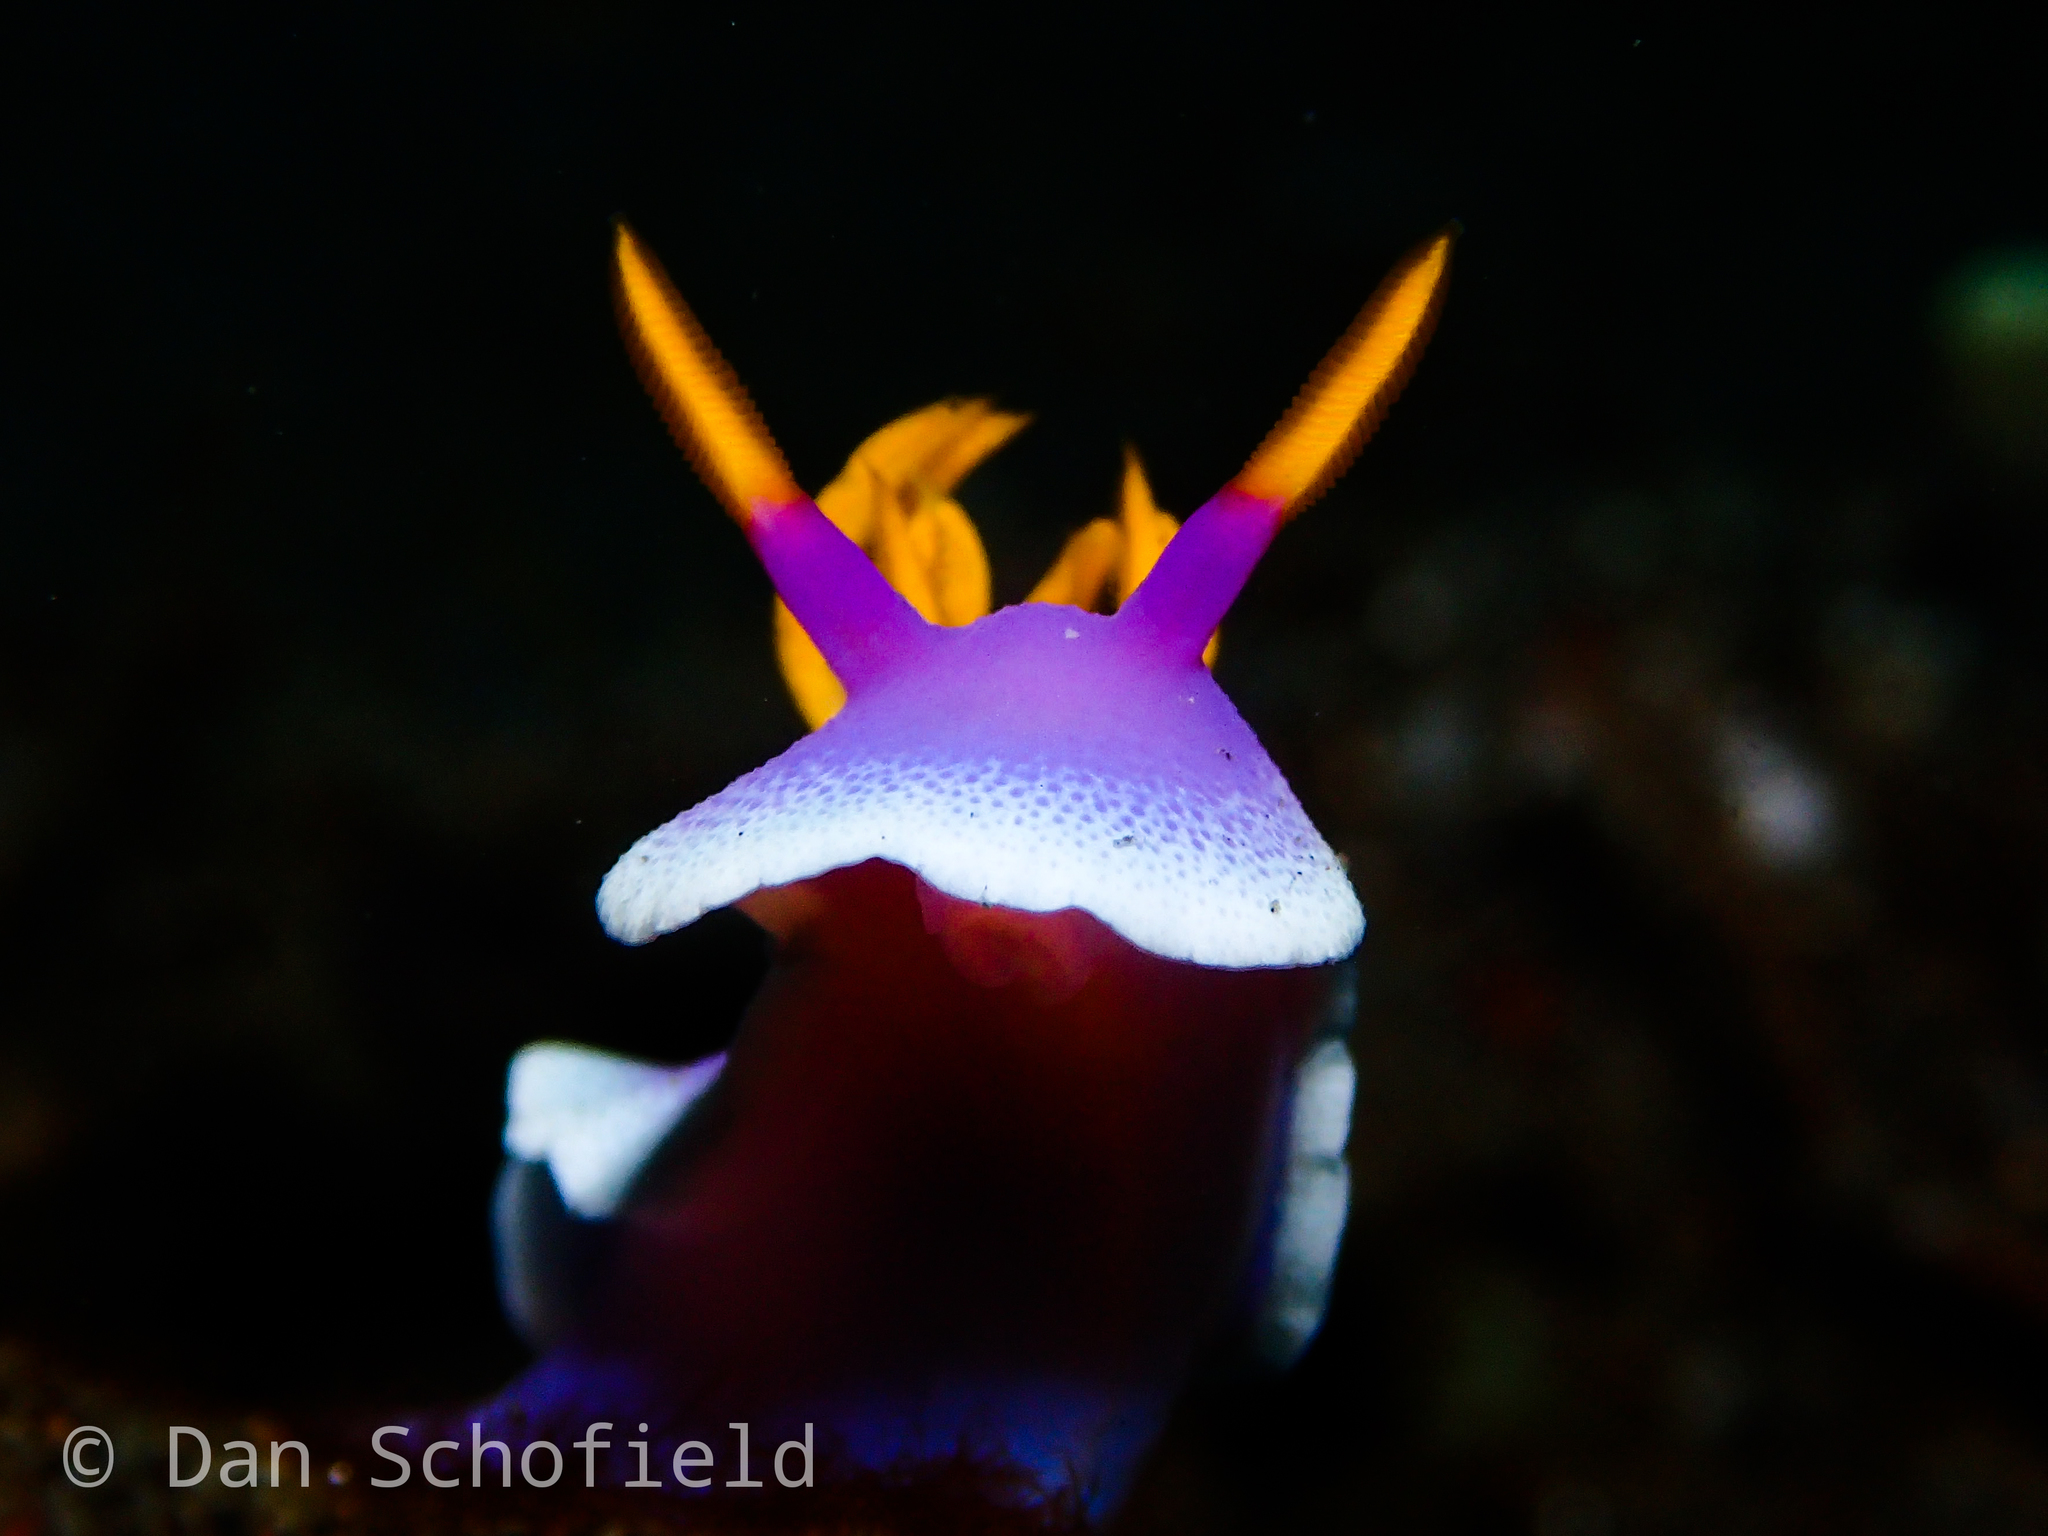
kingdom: Animalia
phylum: Mollusca
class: Gastropoda
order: Nudibranchia
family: Chromodorididae
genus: Hypselodoris
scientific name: Hypselodoris apolegma
